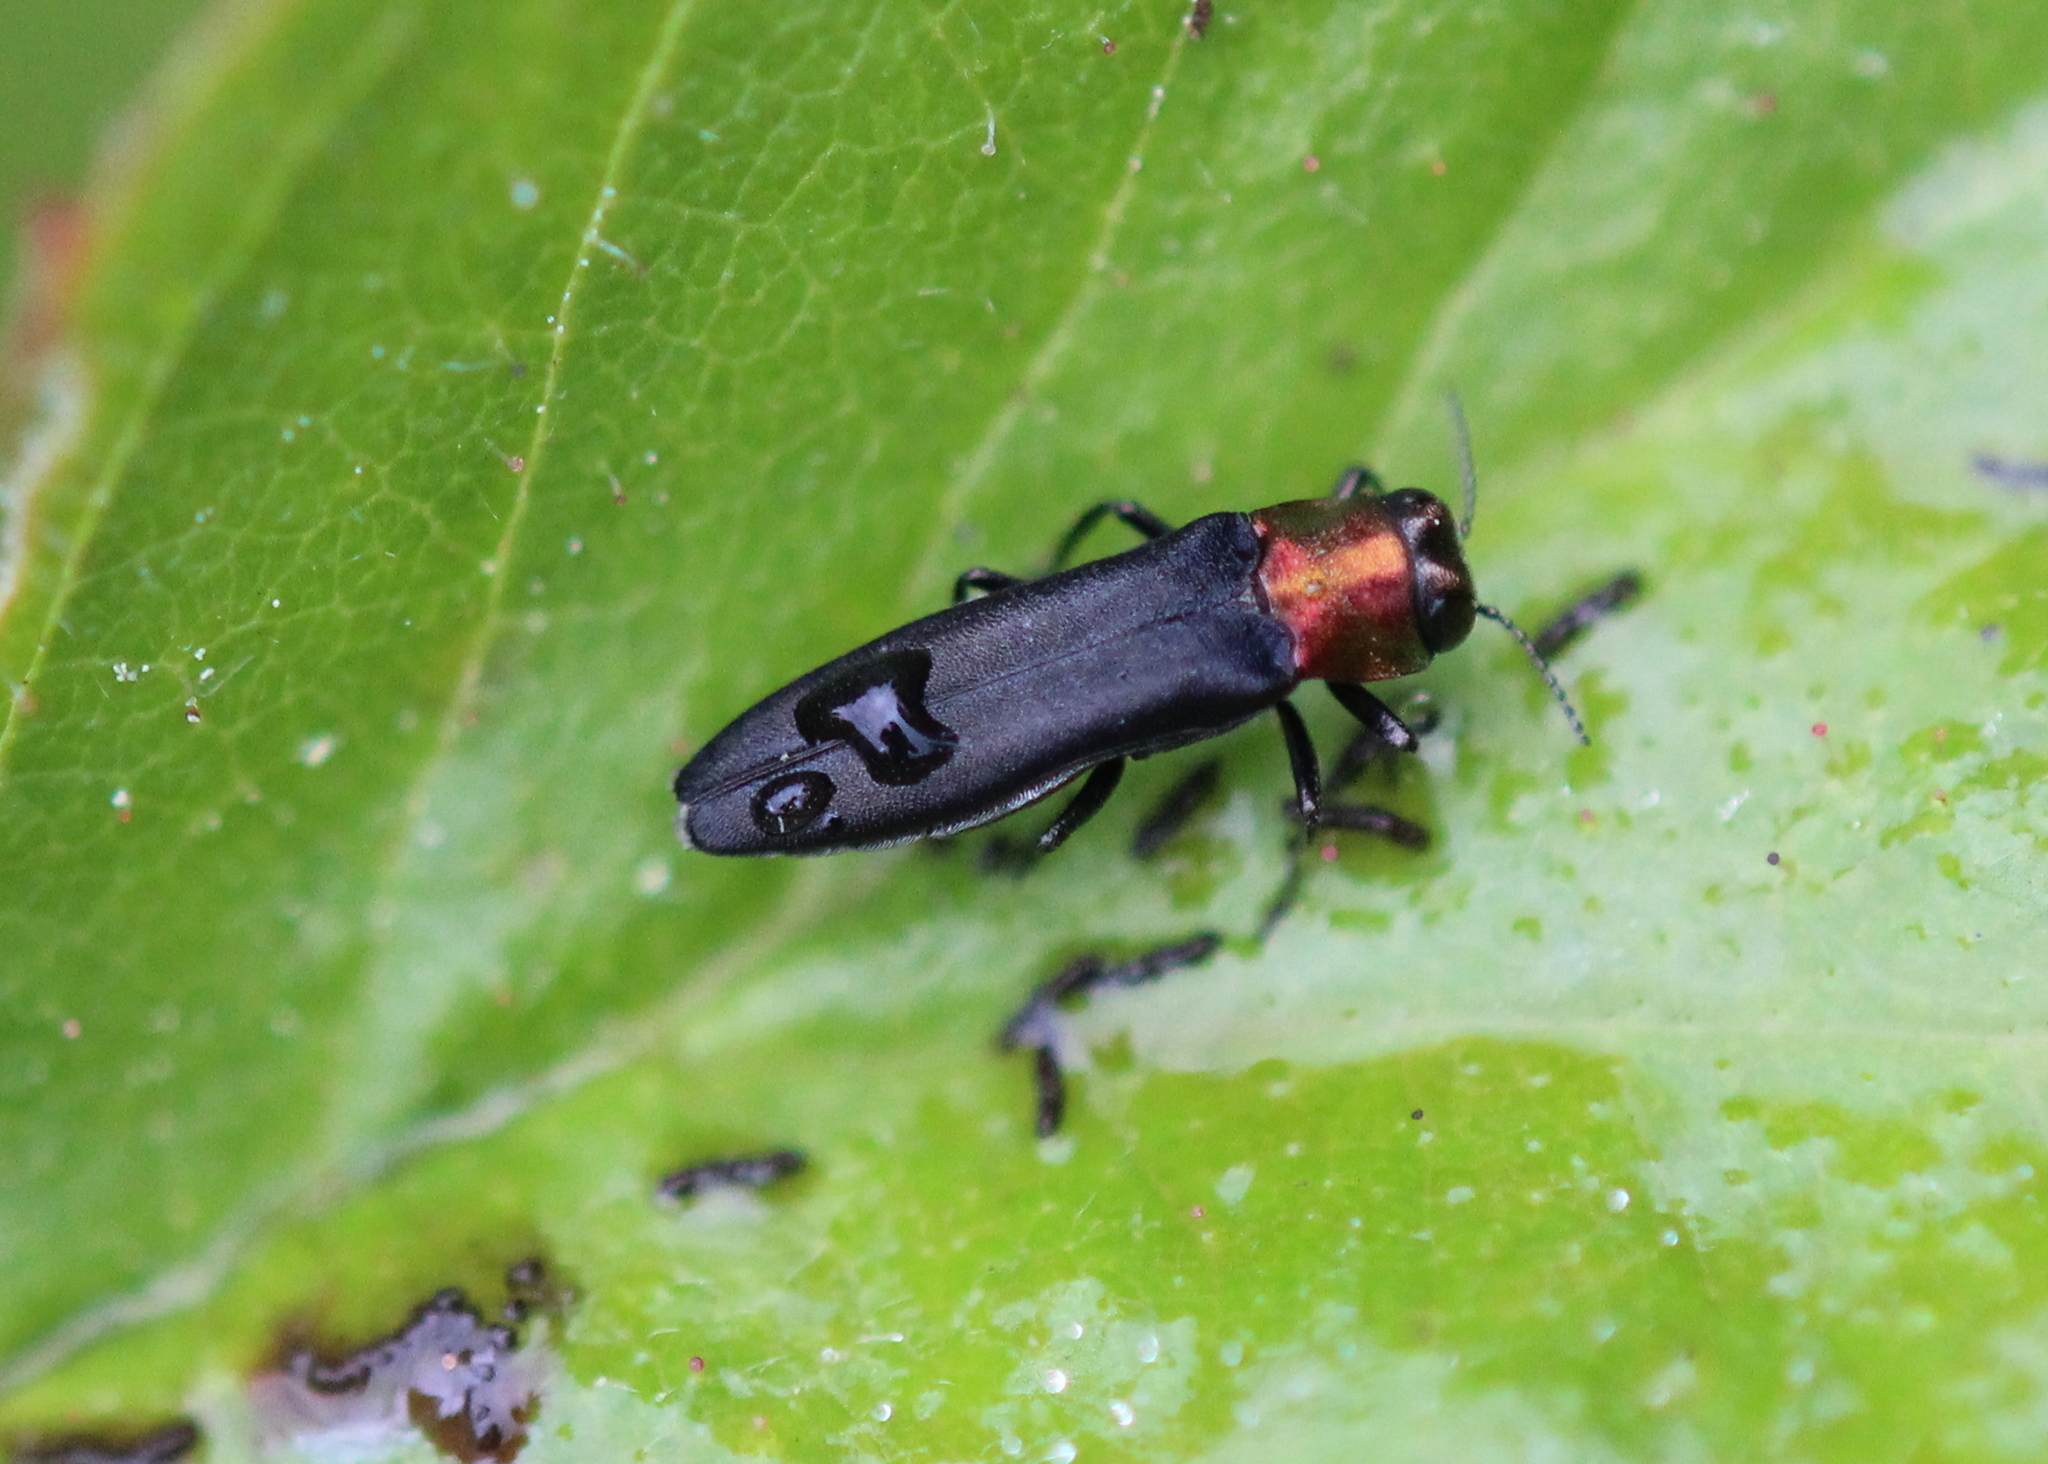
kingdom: Animalia
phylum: Arthropoda
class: Insecta
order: Coleoptera
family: Buprestidae
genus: Agrilus
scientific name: Agrilus ruficollis
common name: Red-necked cane borer beetle
